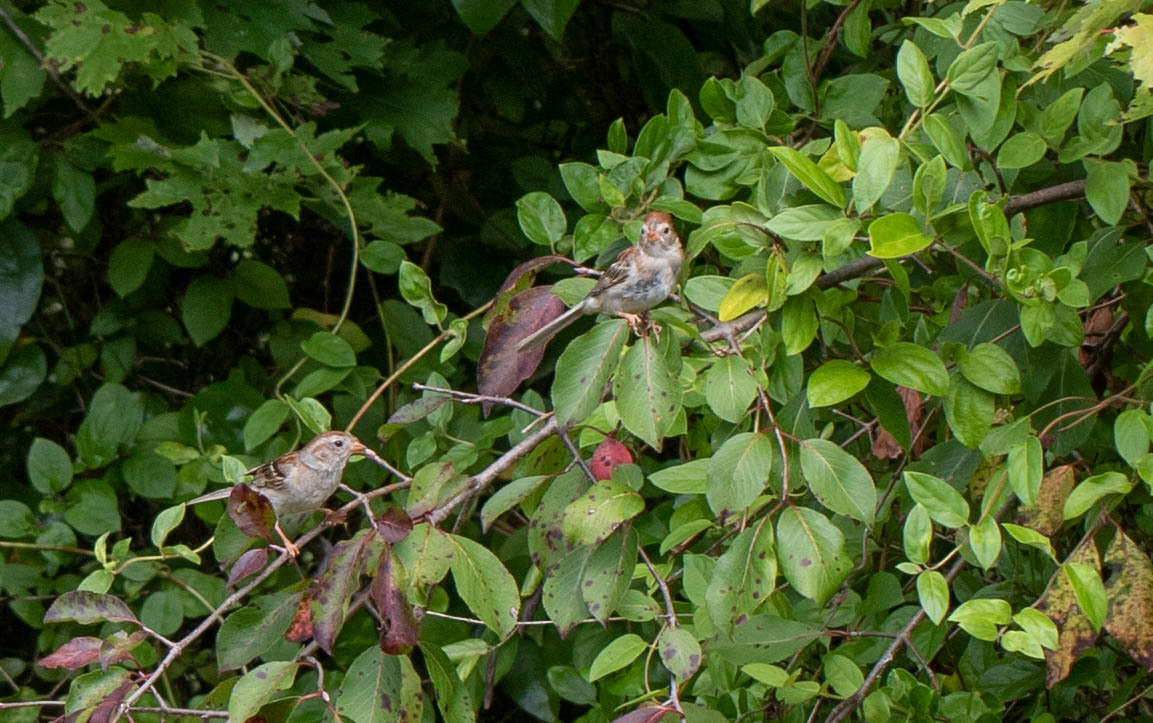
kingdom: Animalia
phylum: Chordata
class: Aves
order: Passeriformes
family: Passerellidae
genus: Spizella
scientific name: Spizella pusilla
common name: Field sparrow
